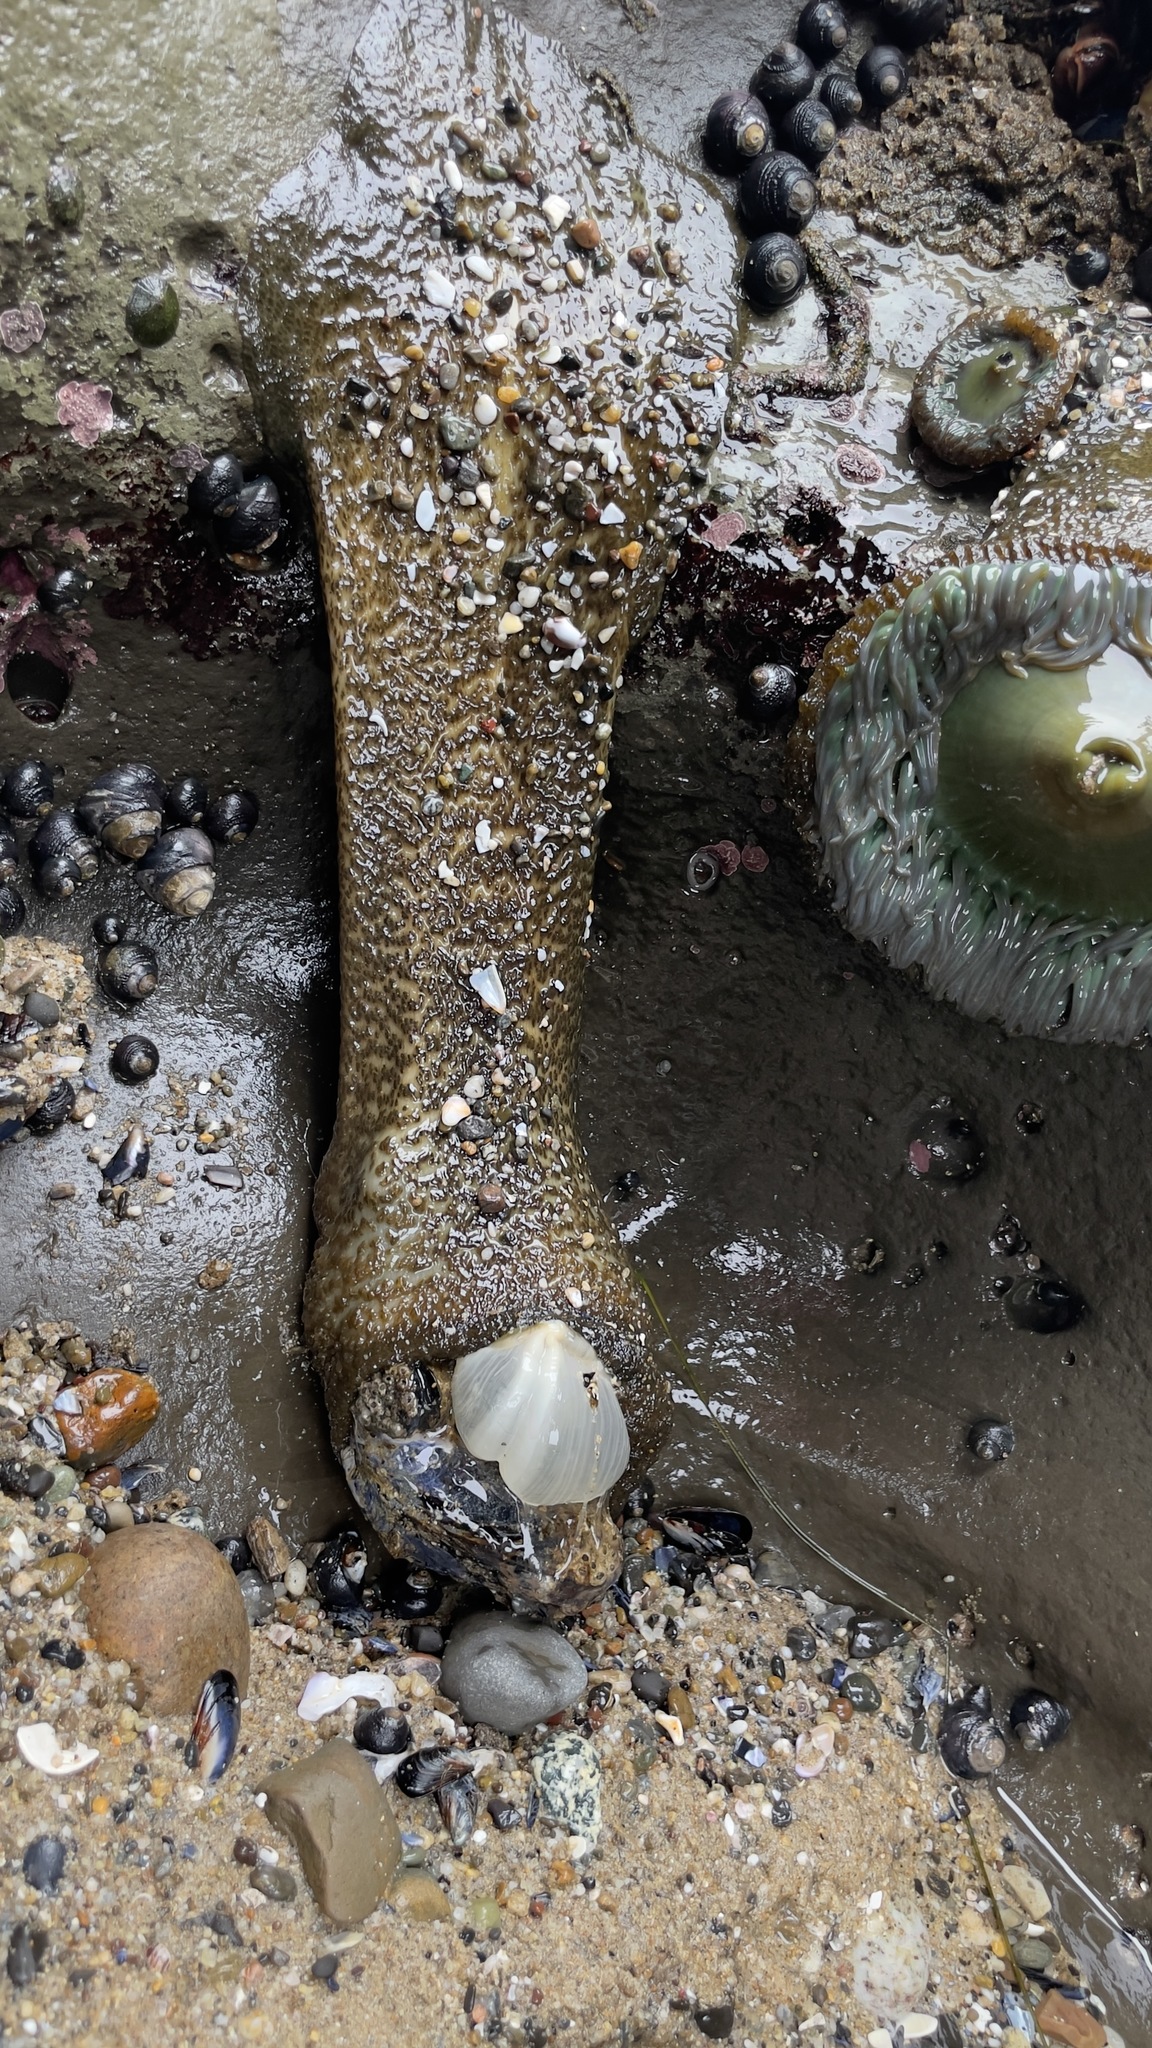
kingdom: Animalia
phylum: Cnidaria
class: Anthozoa
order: Actiniaria
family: Actiniidae
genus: Anthopleura
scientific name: Anthopleura sola
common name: Sun anemone
